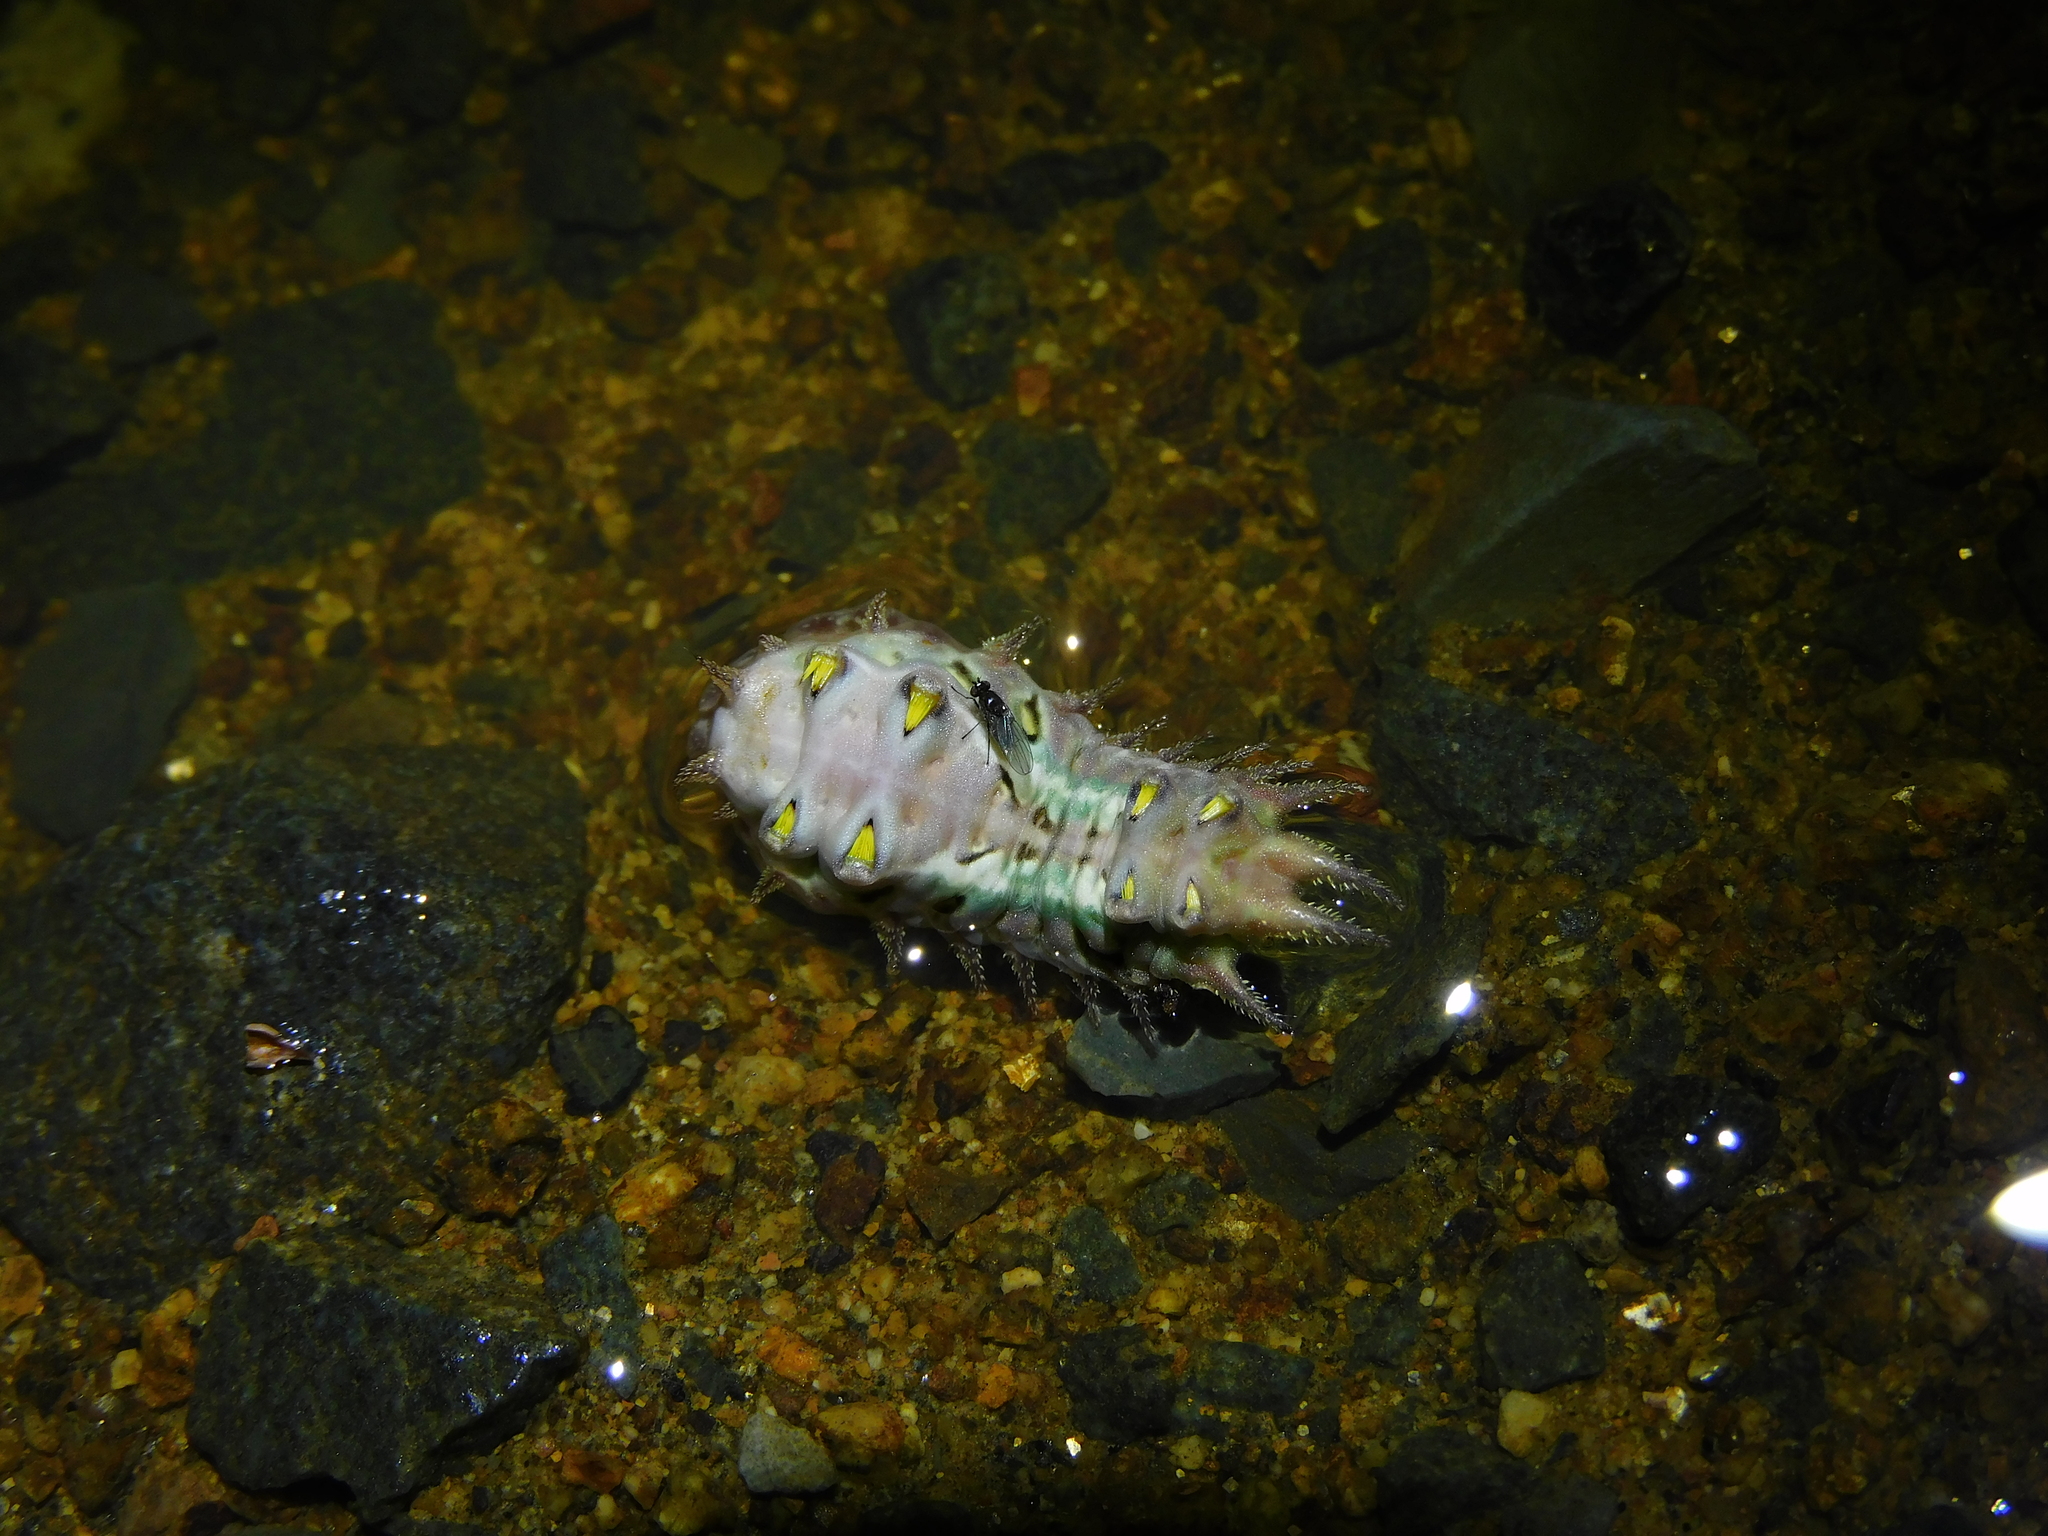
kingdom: Animalia
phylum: Arthropoda
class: Insecta
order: Lepidoptera
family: Limacodidae
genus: Doratifera
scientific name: Doratifera oxleyi
